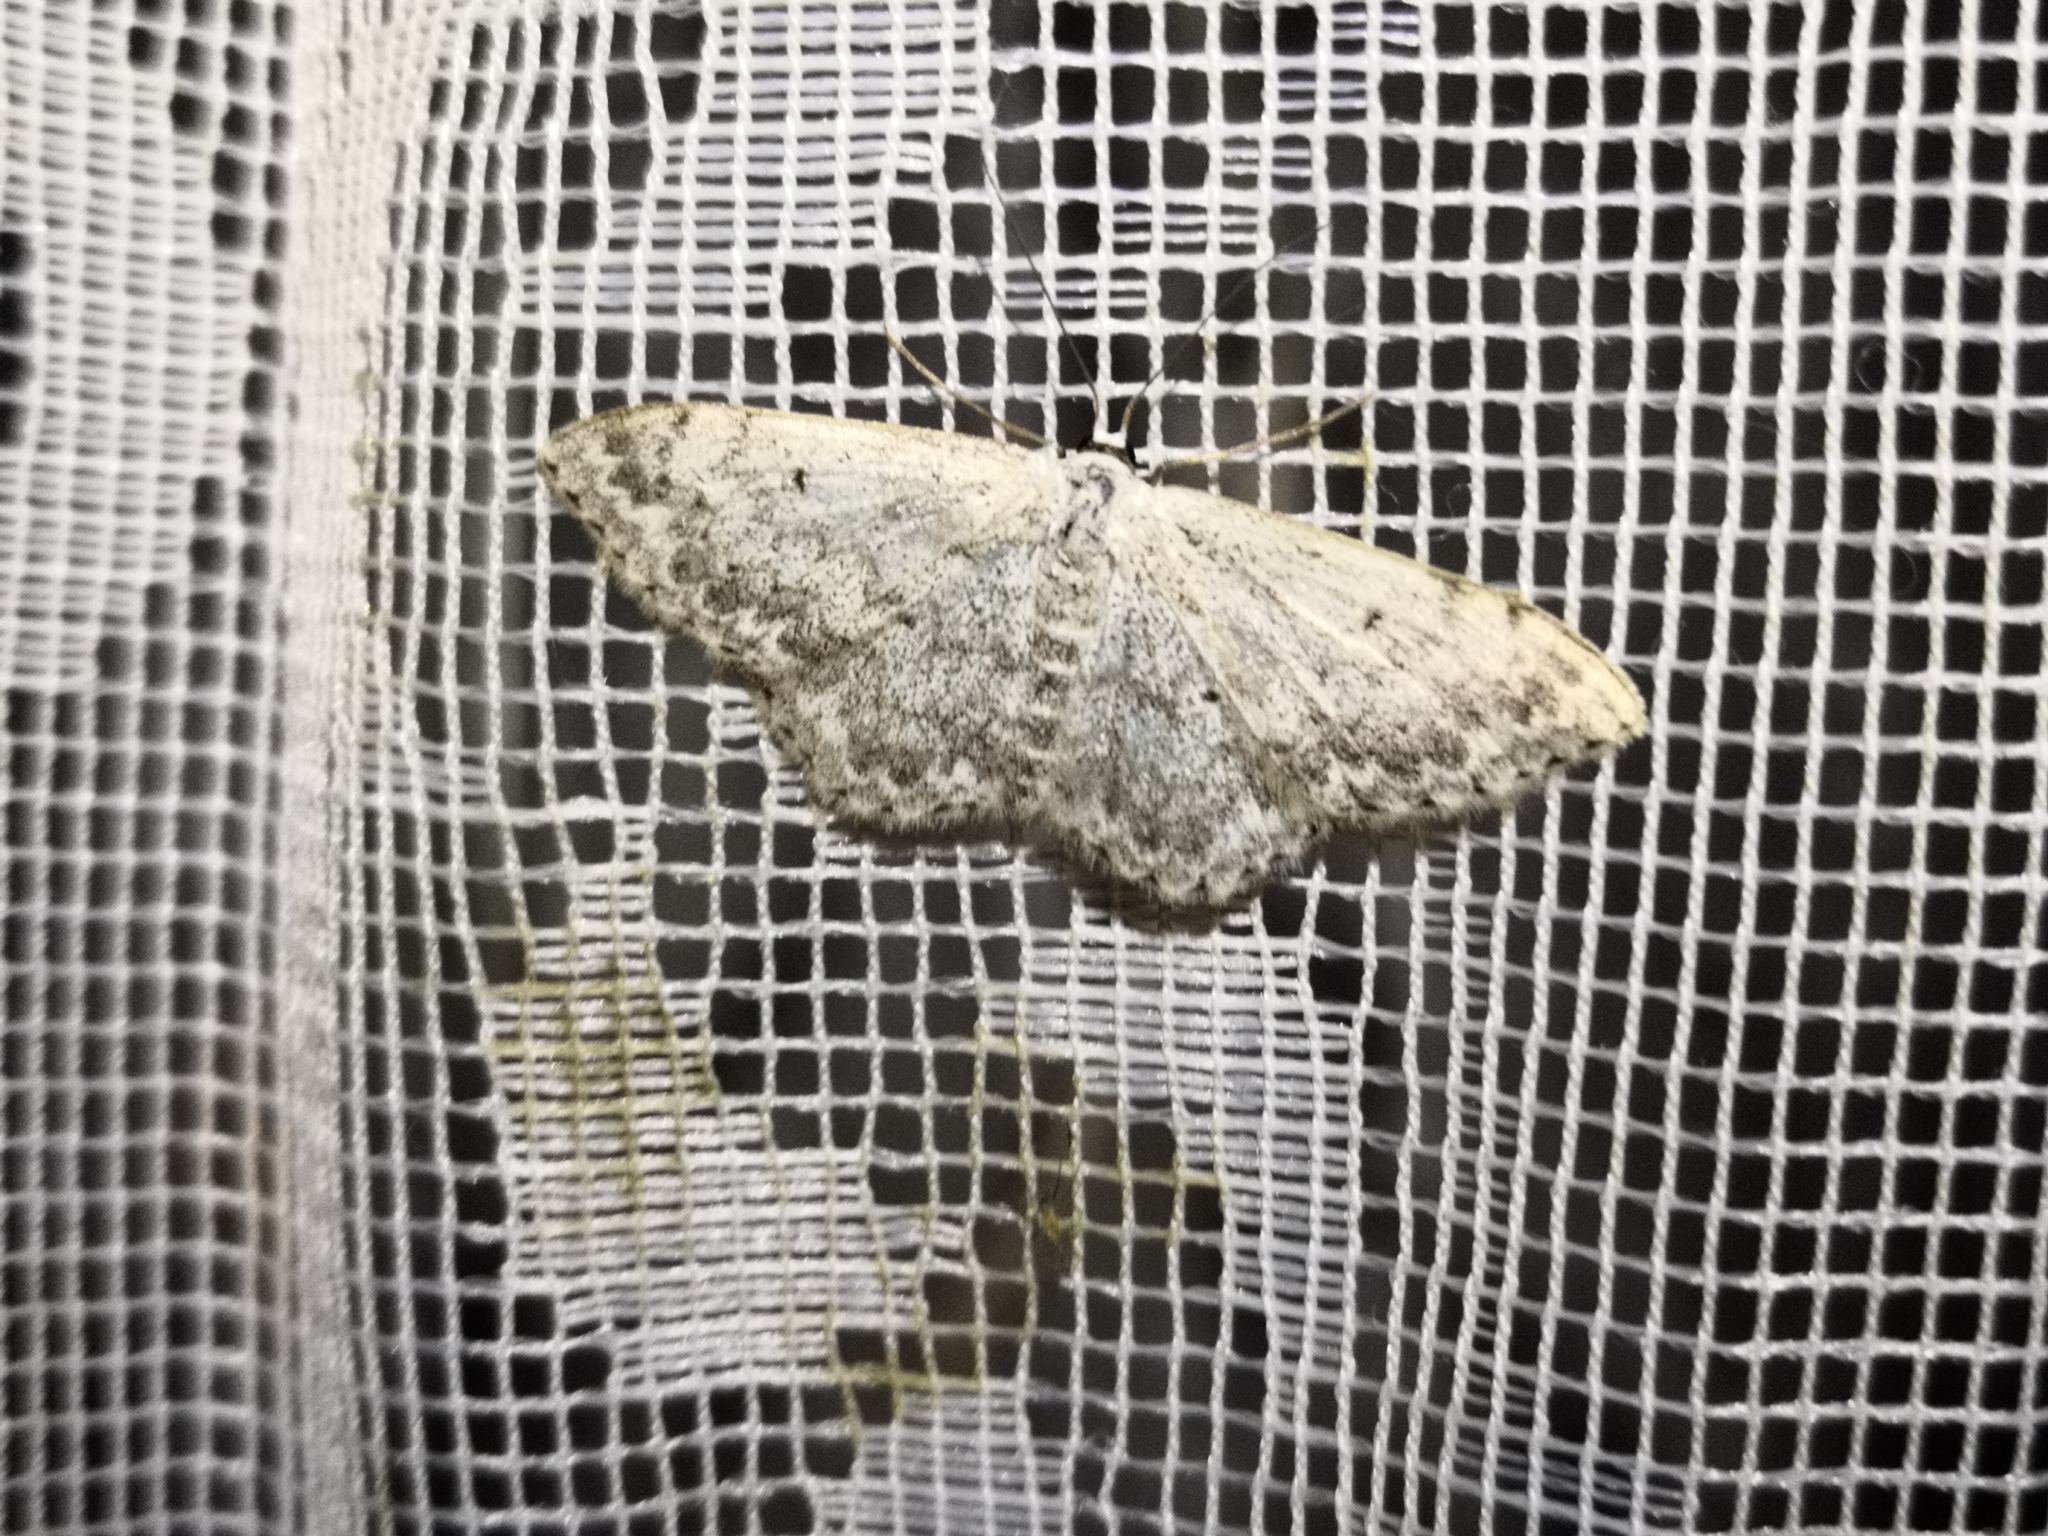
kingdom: Animalia
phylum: Arthropoda
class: Insecta
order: Lepidoptera
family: Geometridae
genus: Scopula
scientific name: Scopula marginepunctata
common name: Mullein wave
